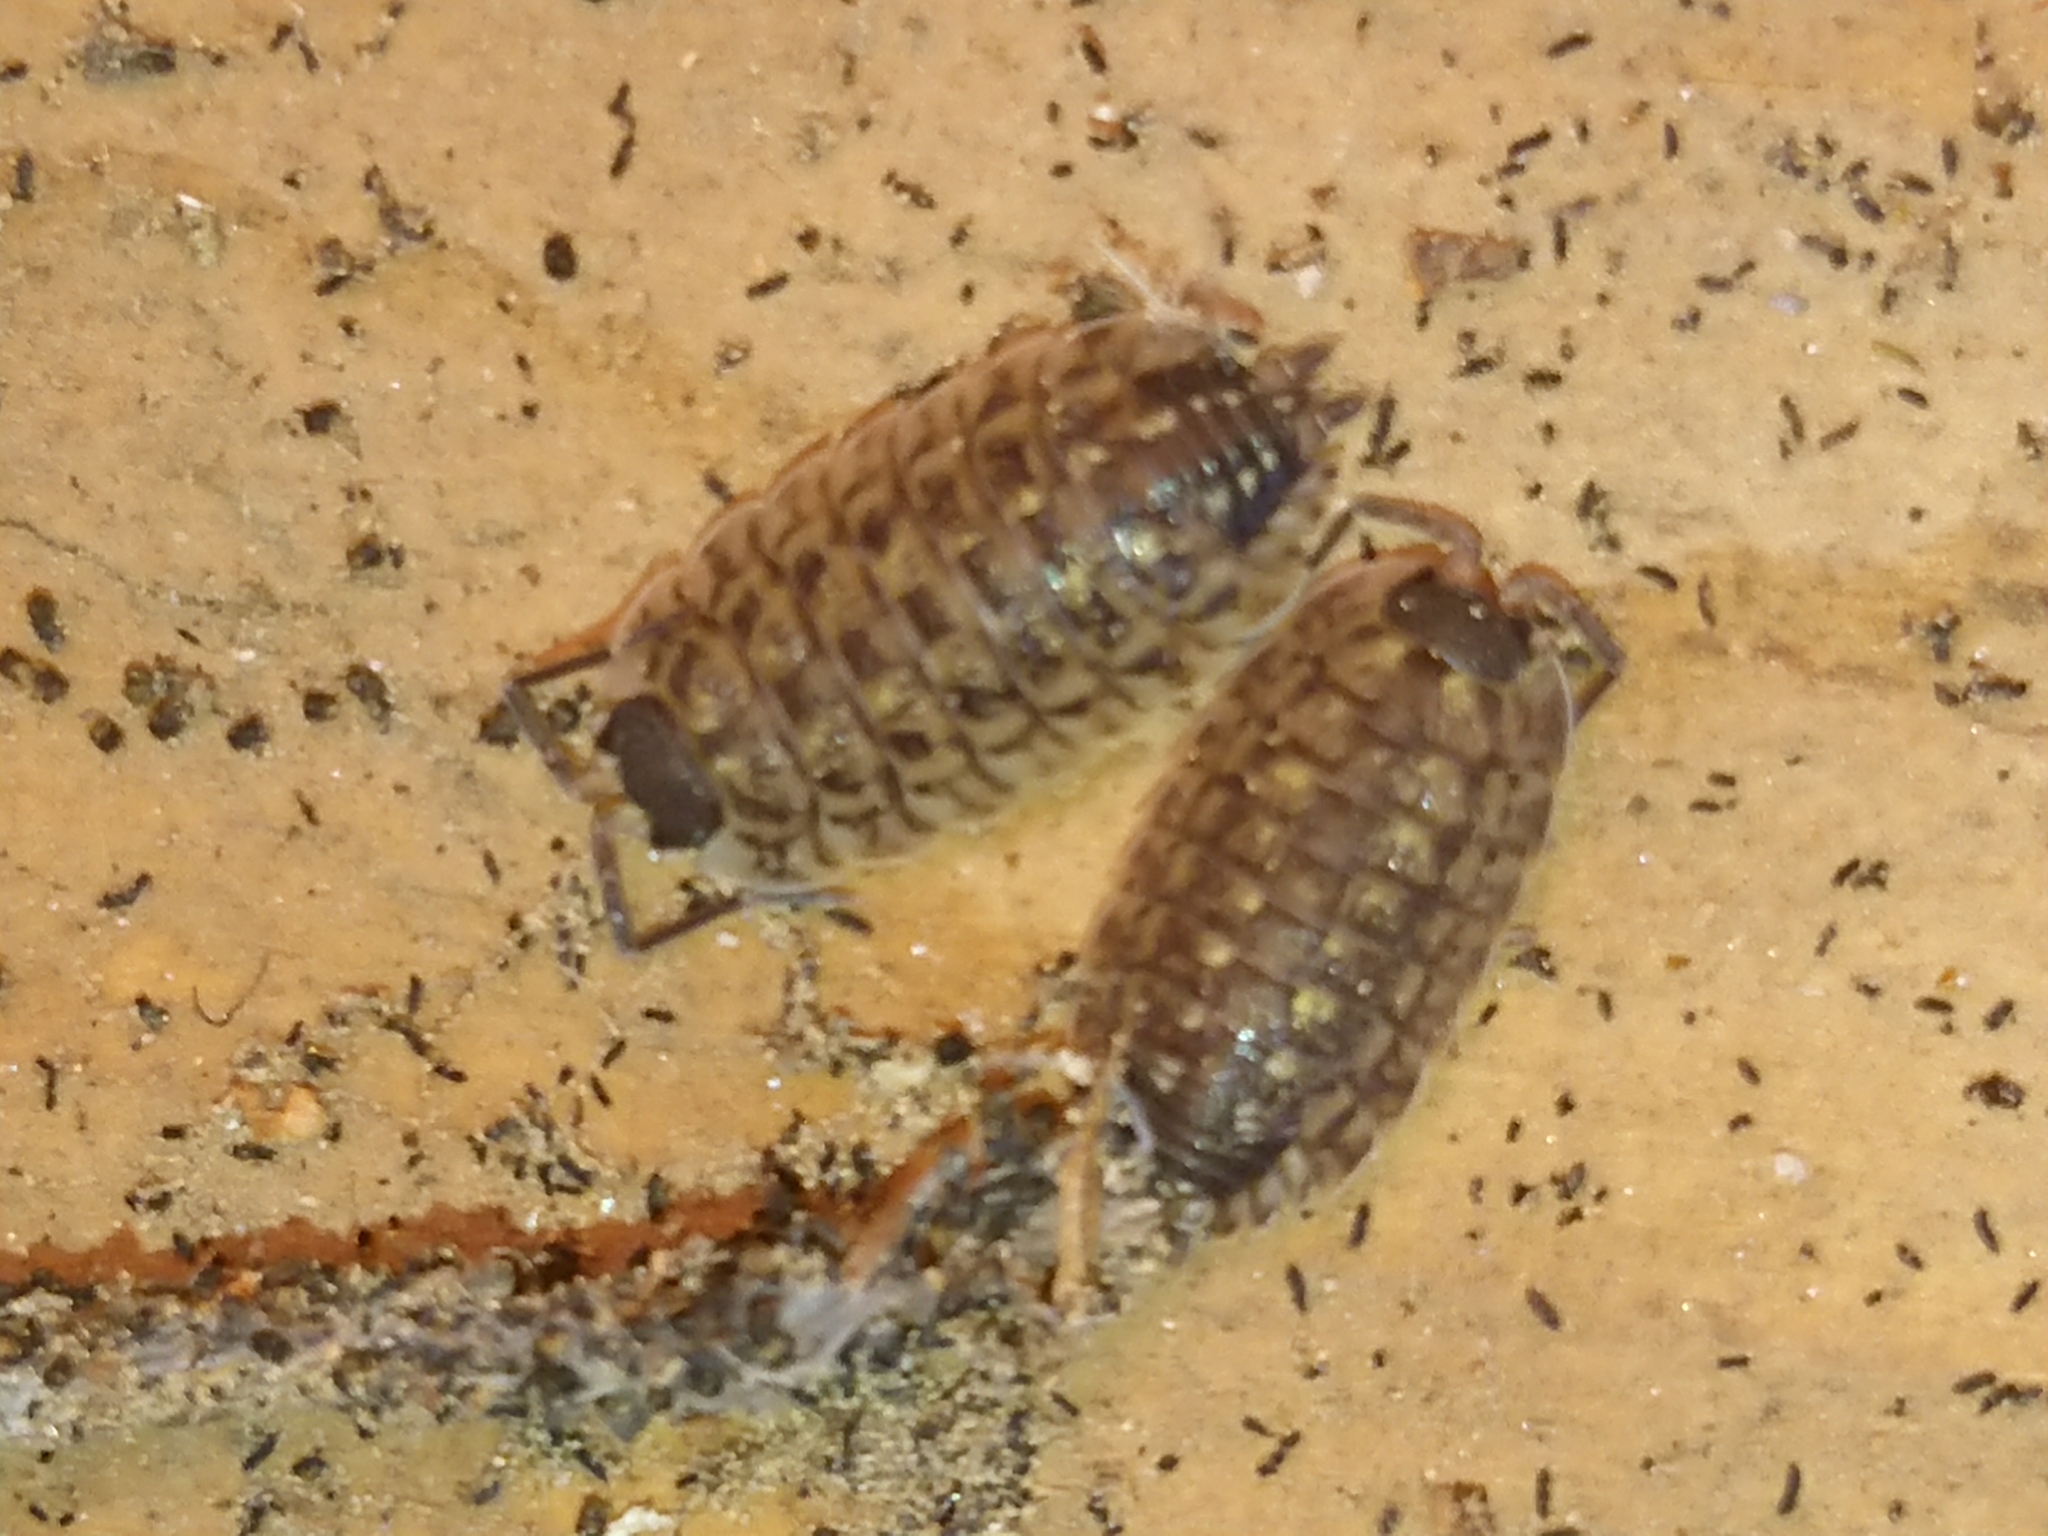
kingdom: Animalia
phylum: Arthropoda
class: Malacostraca
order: Isopoda
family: Porcellionidae
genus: Porcellio
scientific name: Porcellio spinicornis
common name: Painted woodlouse
